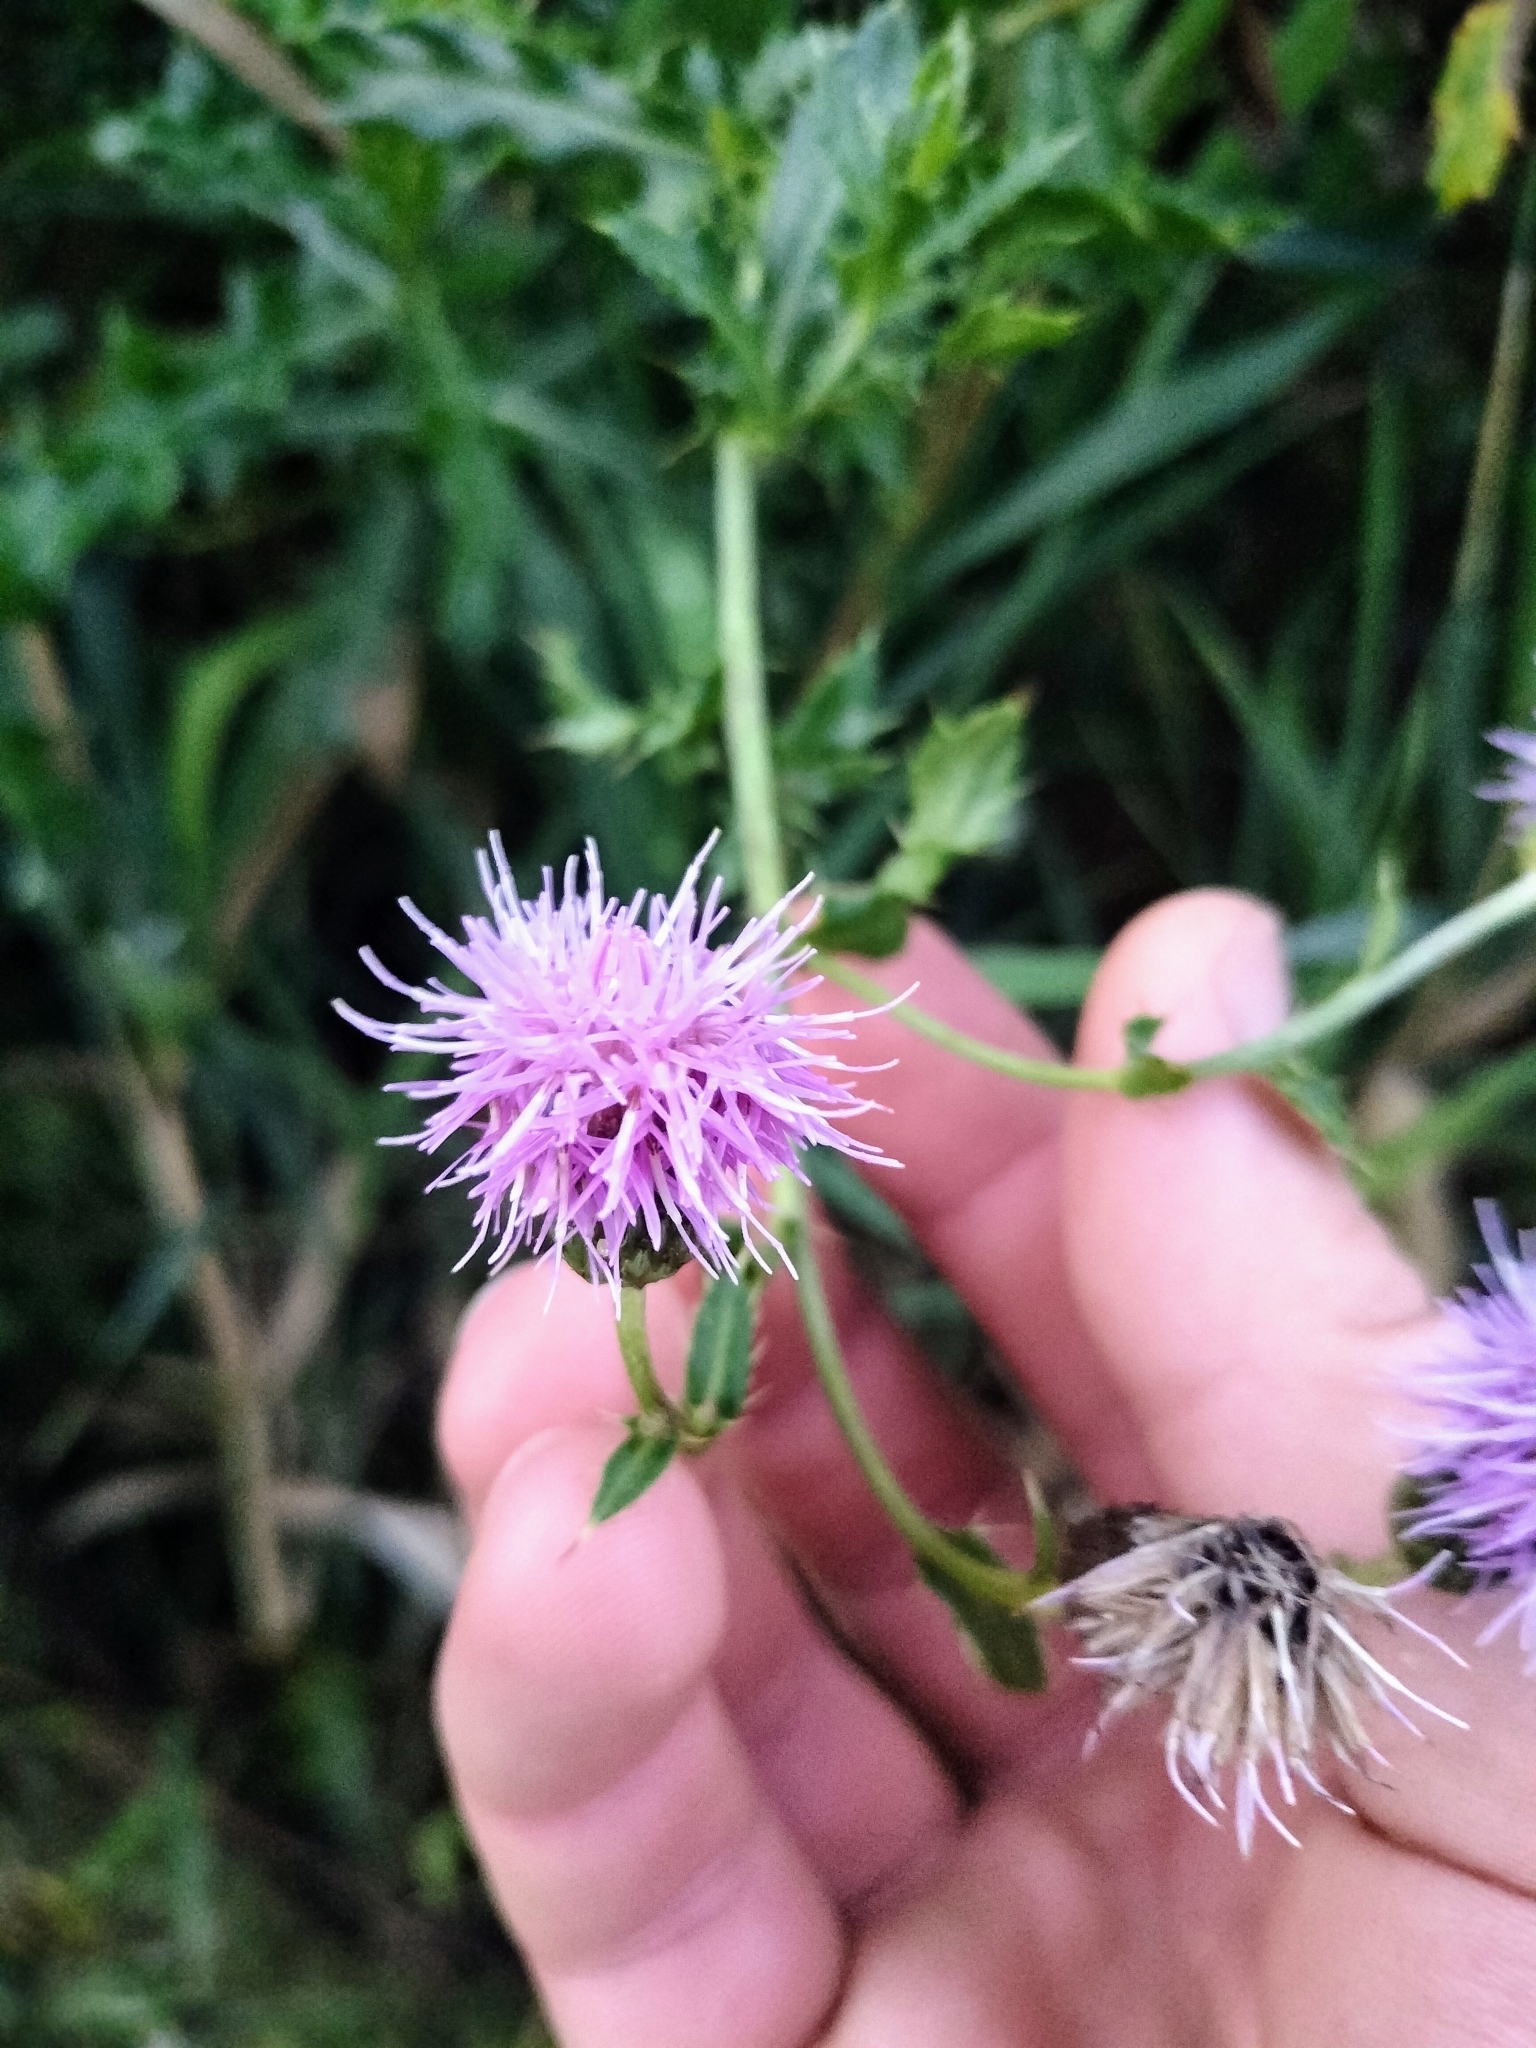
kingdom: Plantae
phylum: Tracheophyta
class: Magnoliopsida
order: Asterales
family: Asteraceae
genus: Cirsium
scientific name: Cirsium arvense
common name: Creeping thistle
